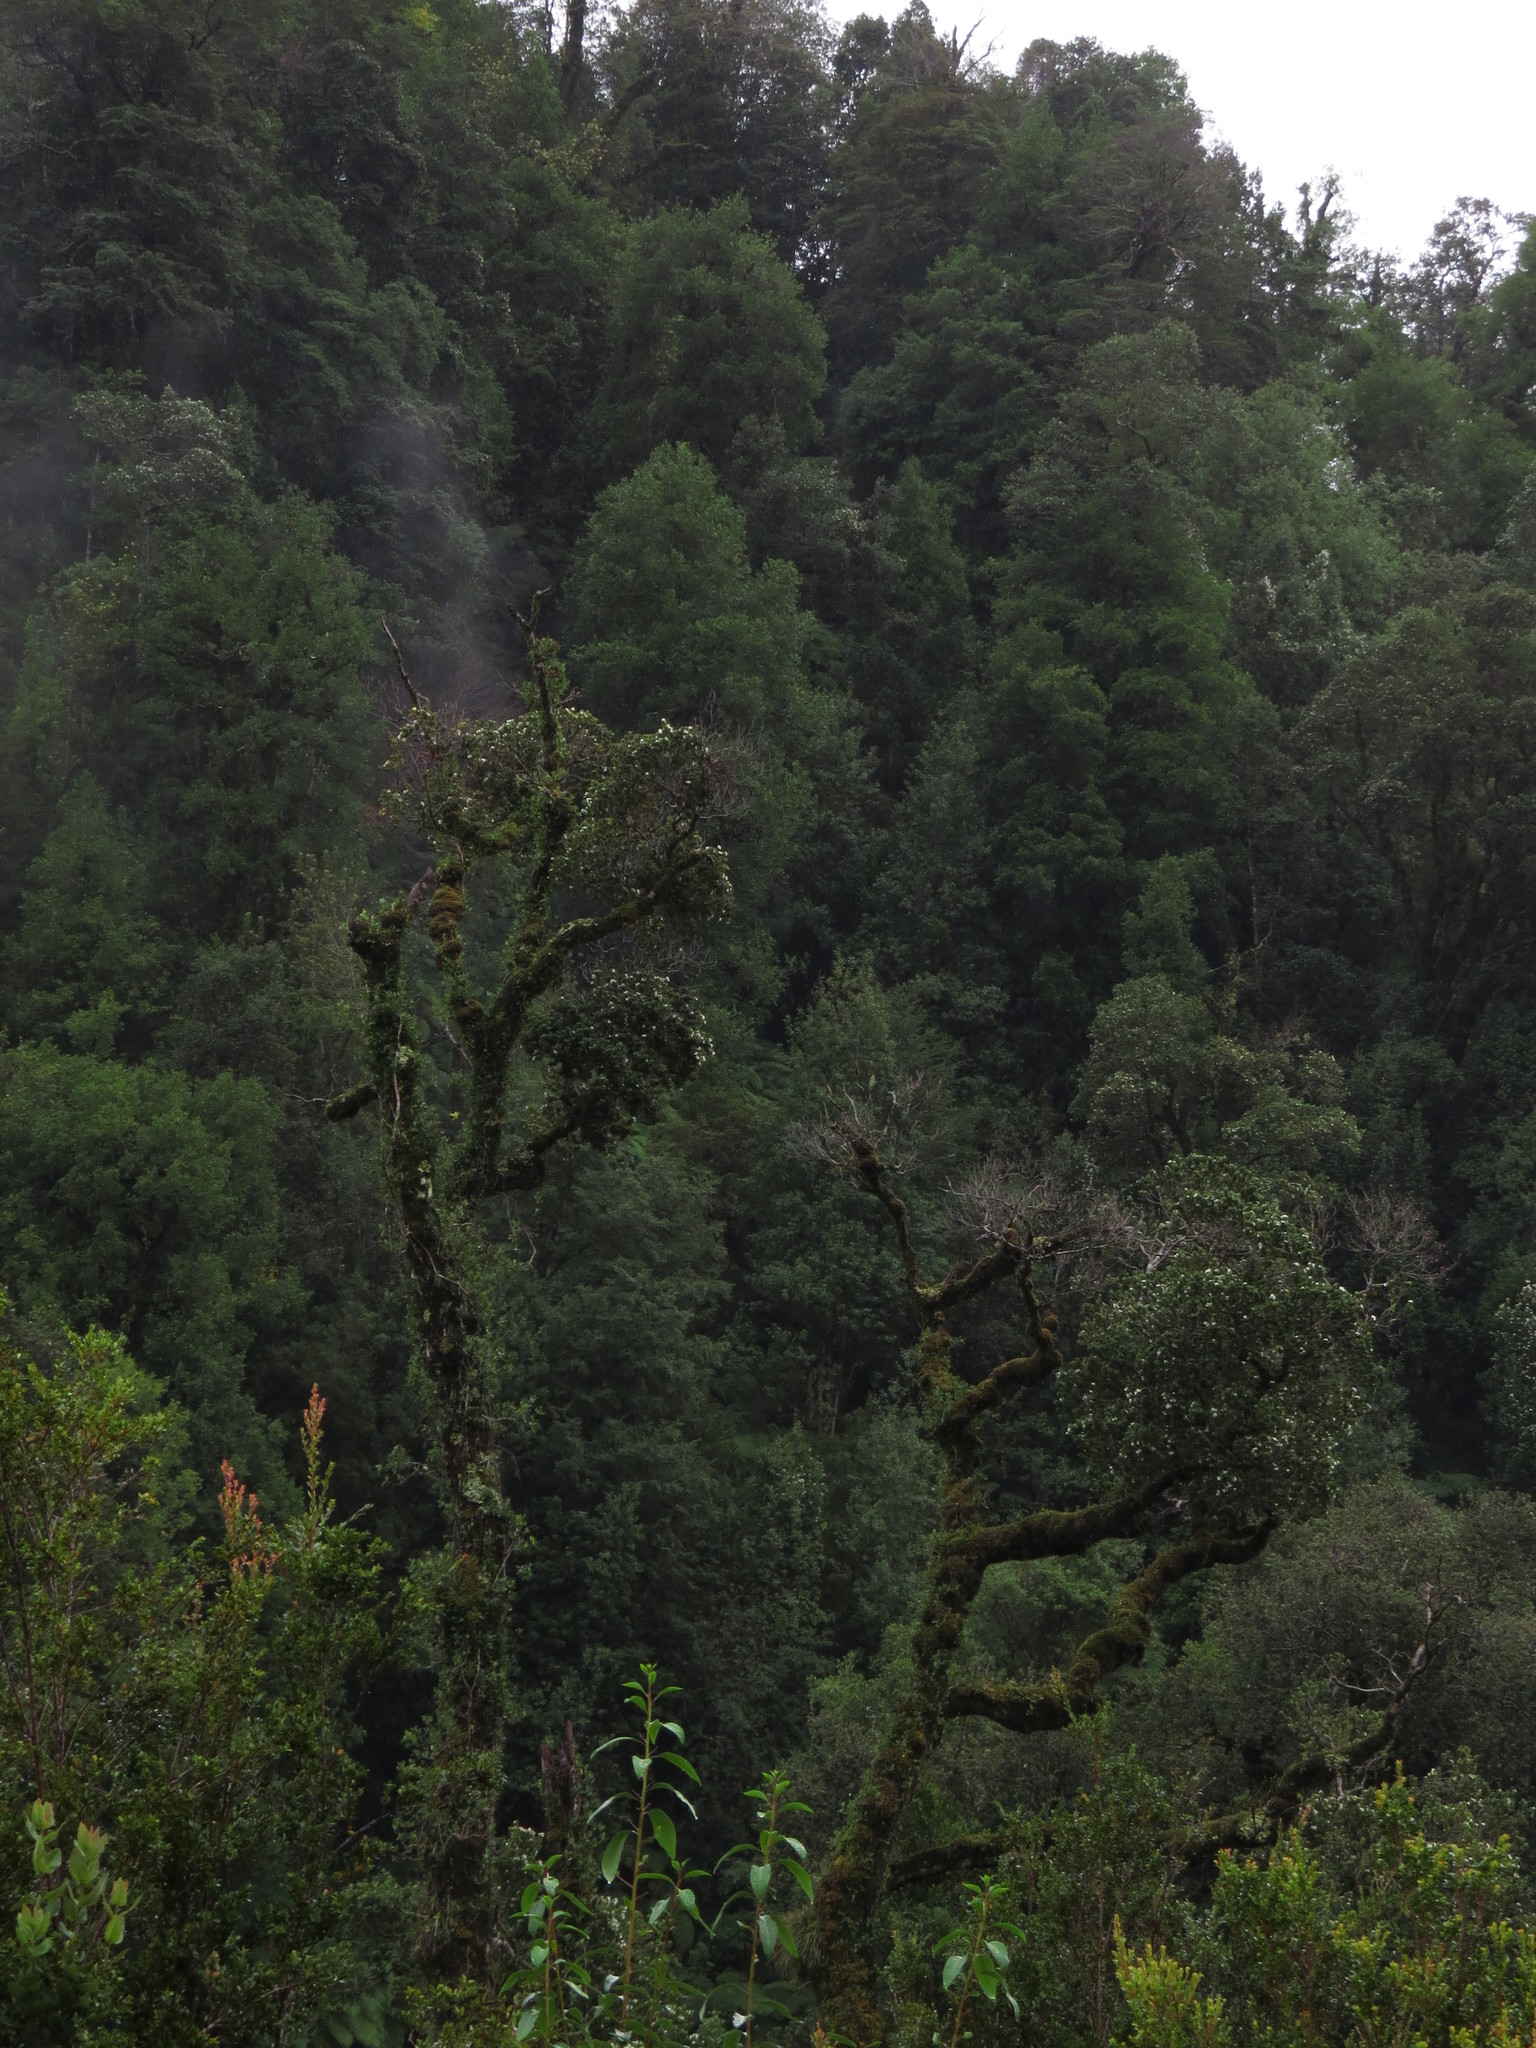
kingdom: Plantae
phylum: Tracheophyta
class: Magnoliopsida
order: Oxalidales
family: Cunoniaceae
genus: Eucryphia
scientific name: Eucryphia cordifolia
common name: Ulmo
